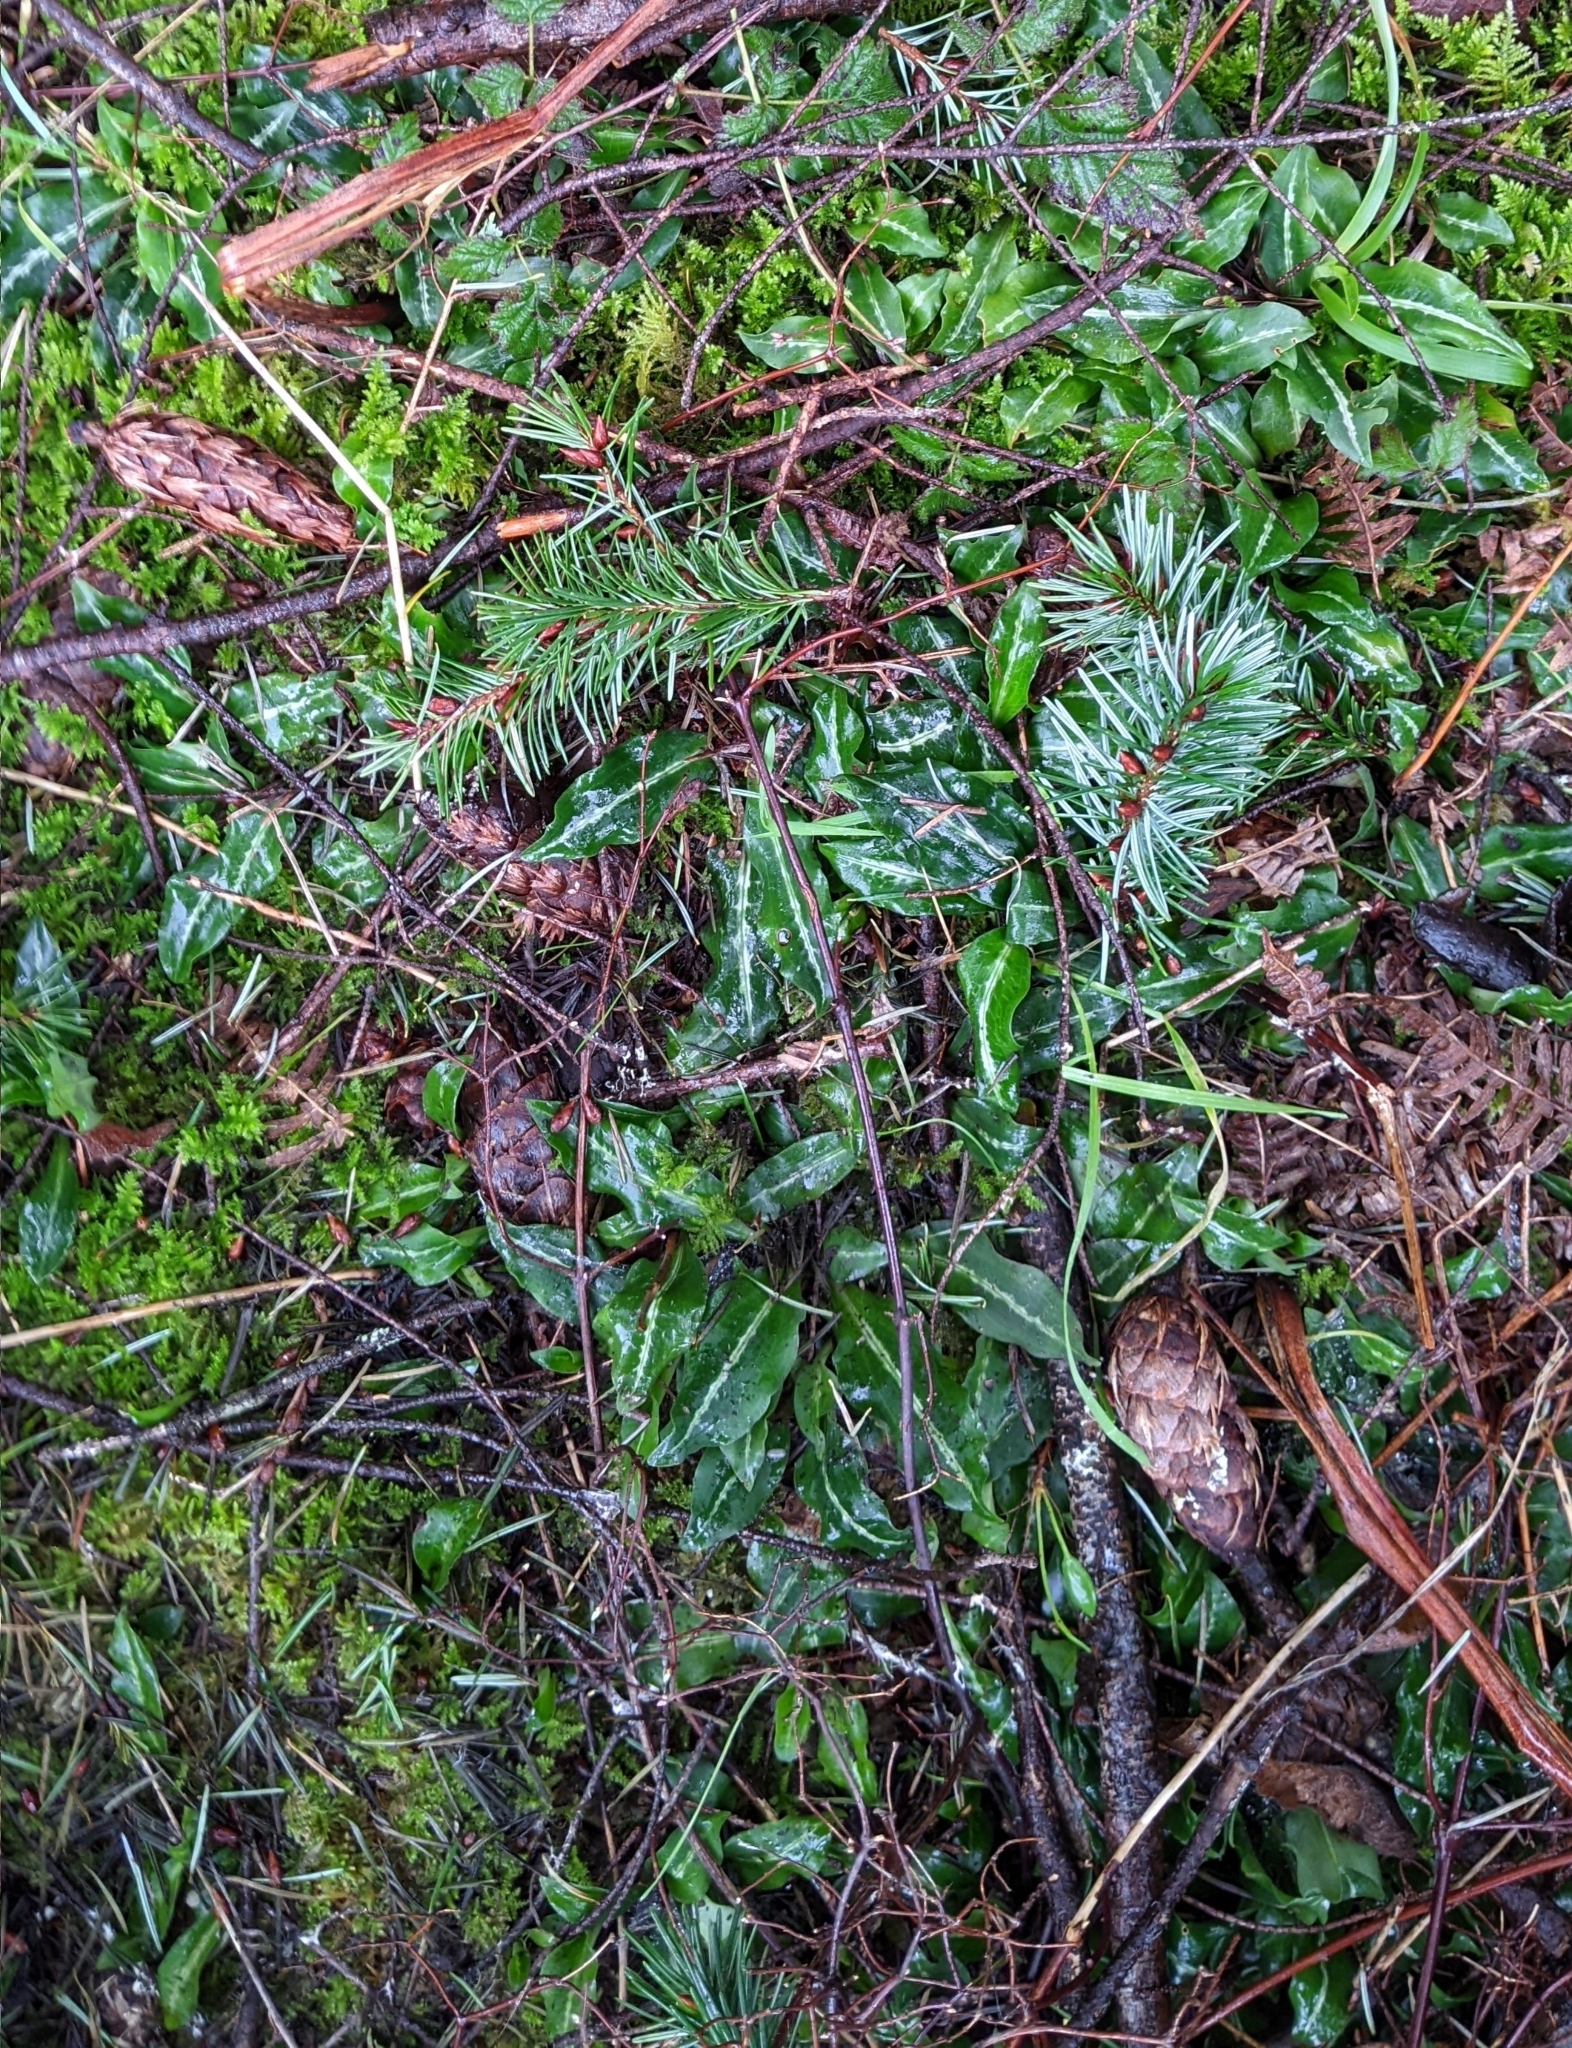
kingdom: Plantae
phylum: Tracheophyta
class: Liliopsida
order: Asparagales
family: Orchidaceae
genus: Goodyera
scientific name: Goodyera oblongifolia
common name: Giant rattlesnake-plantain
